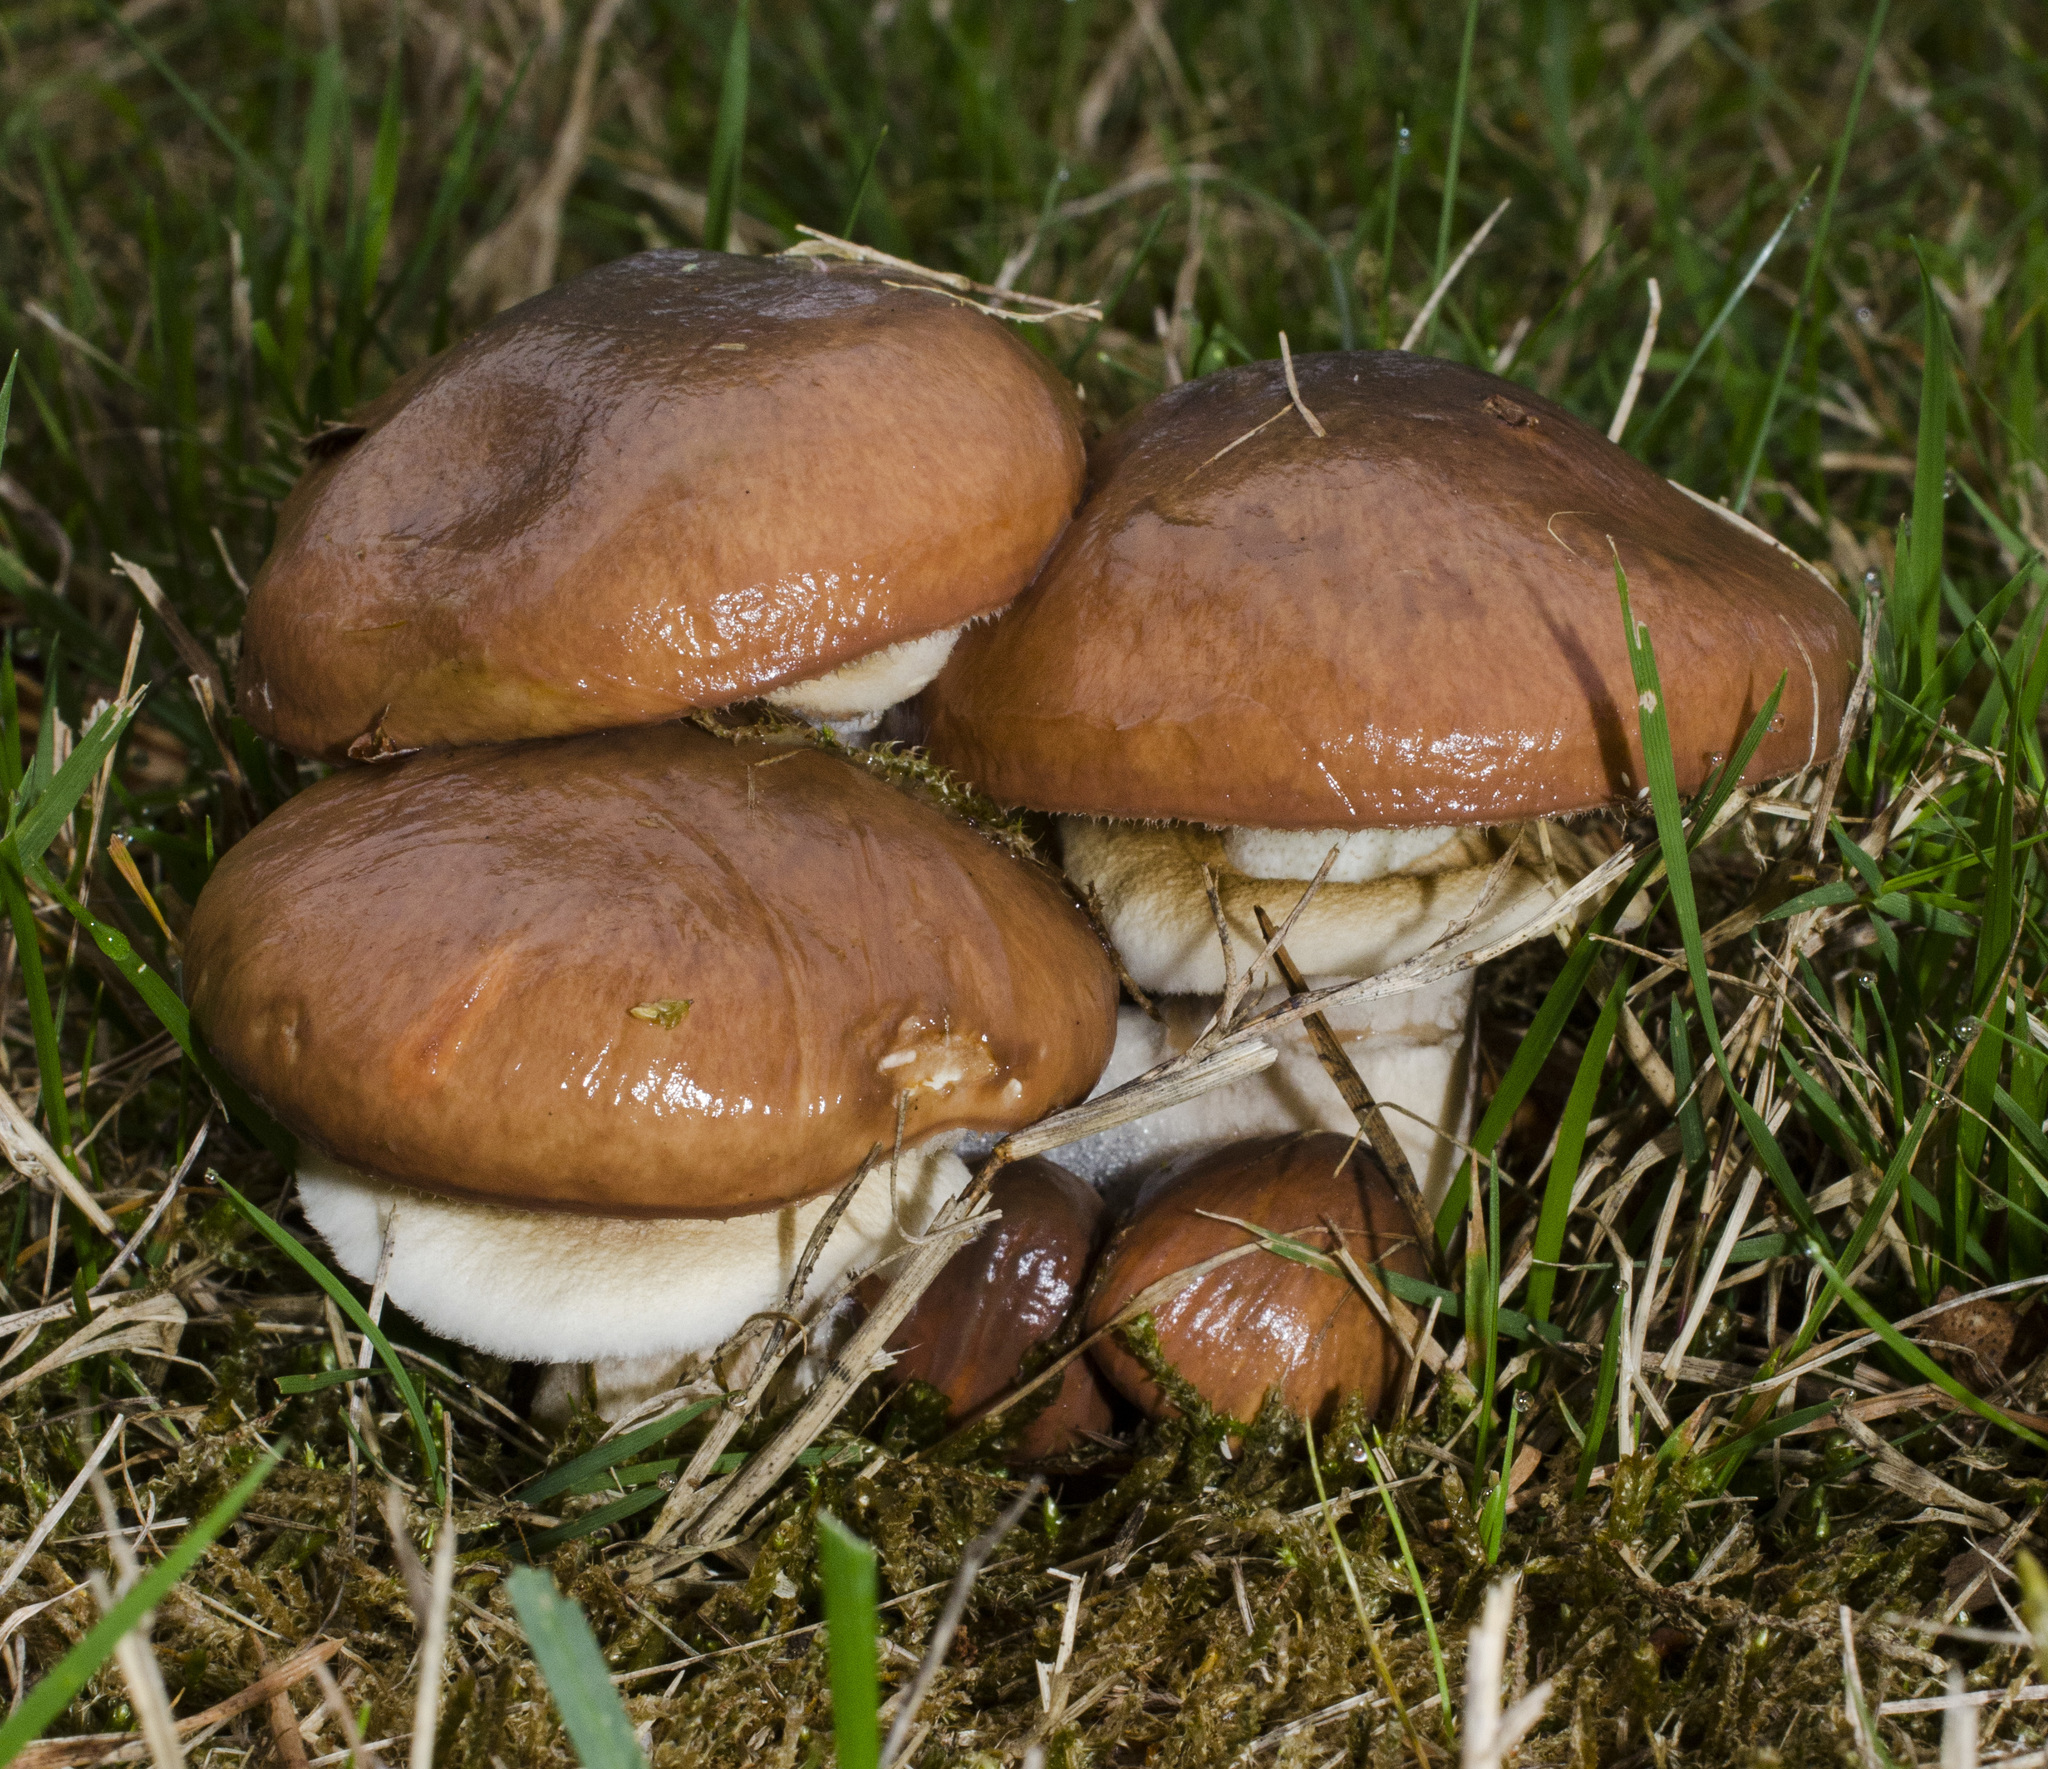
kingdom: Fungi
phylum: Basidiomycota
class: Agaricomycetes
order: Boletales
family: Suillaceae
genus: Suillus
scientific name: Suillus luteus
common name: Slippery jack
